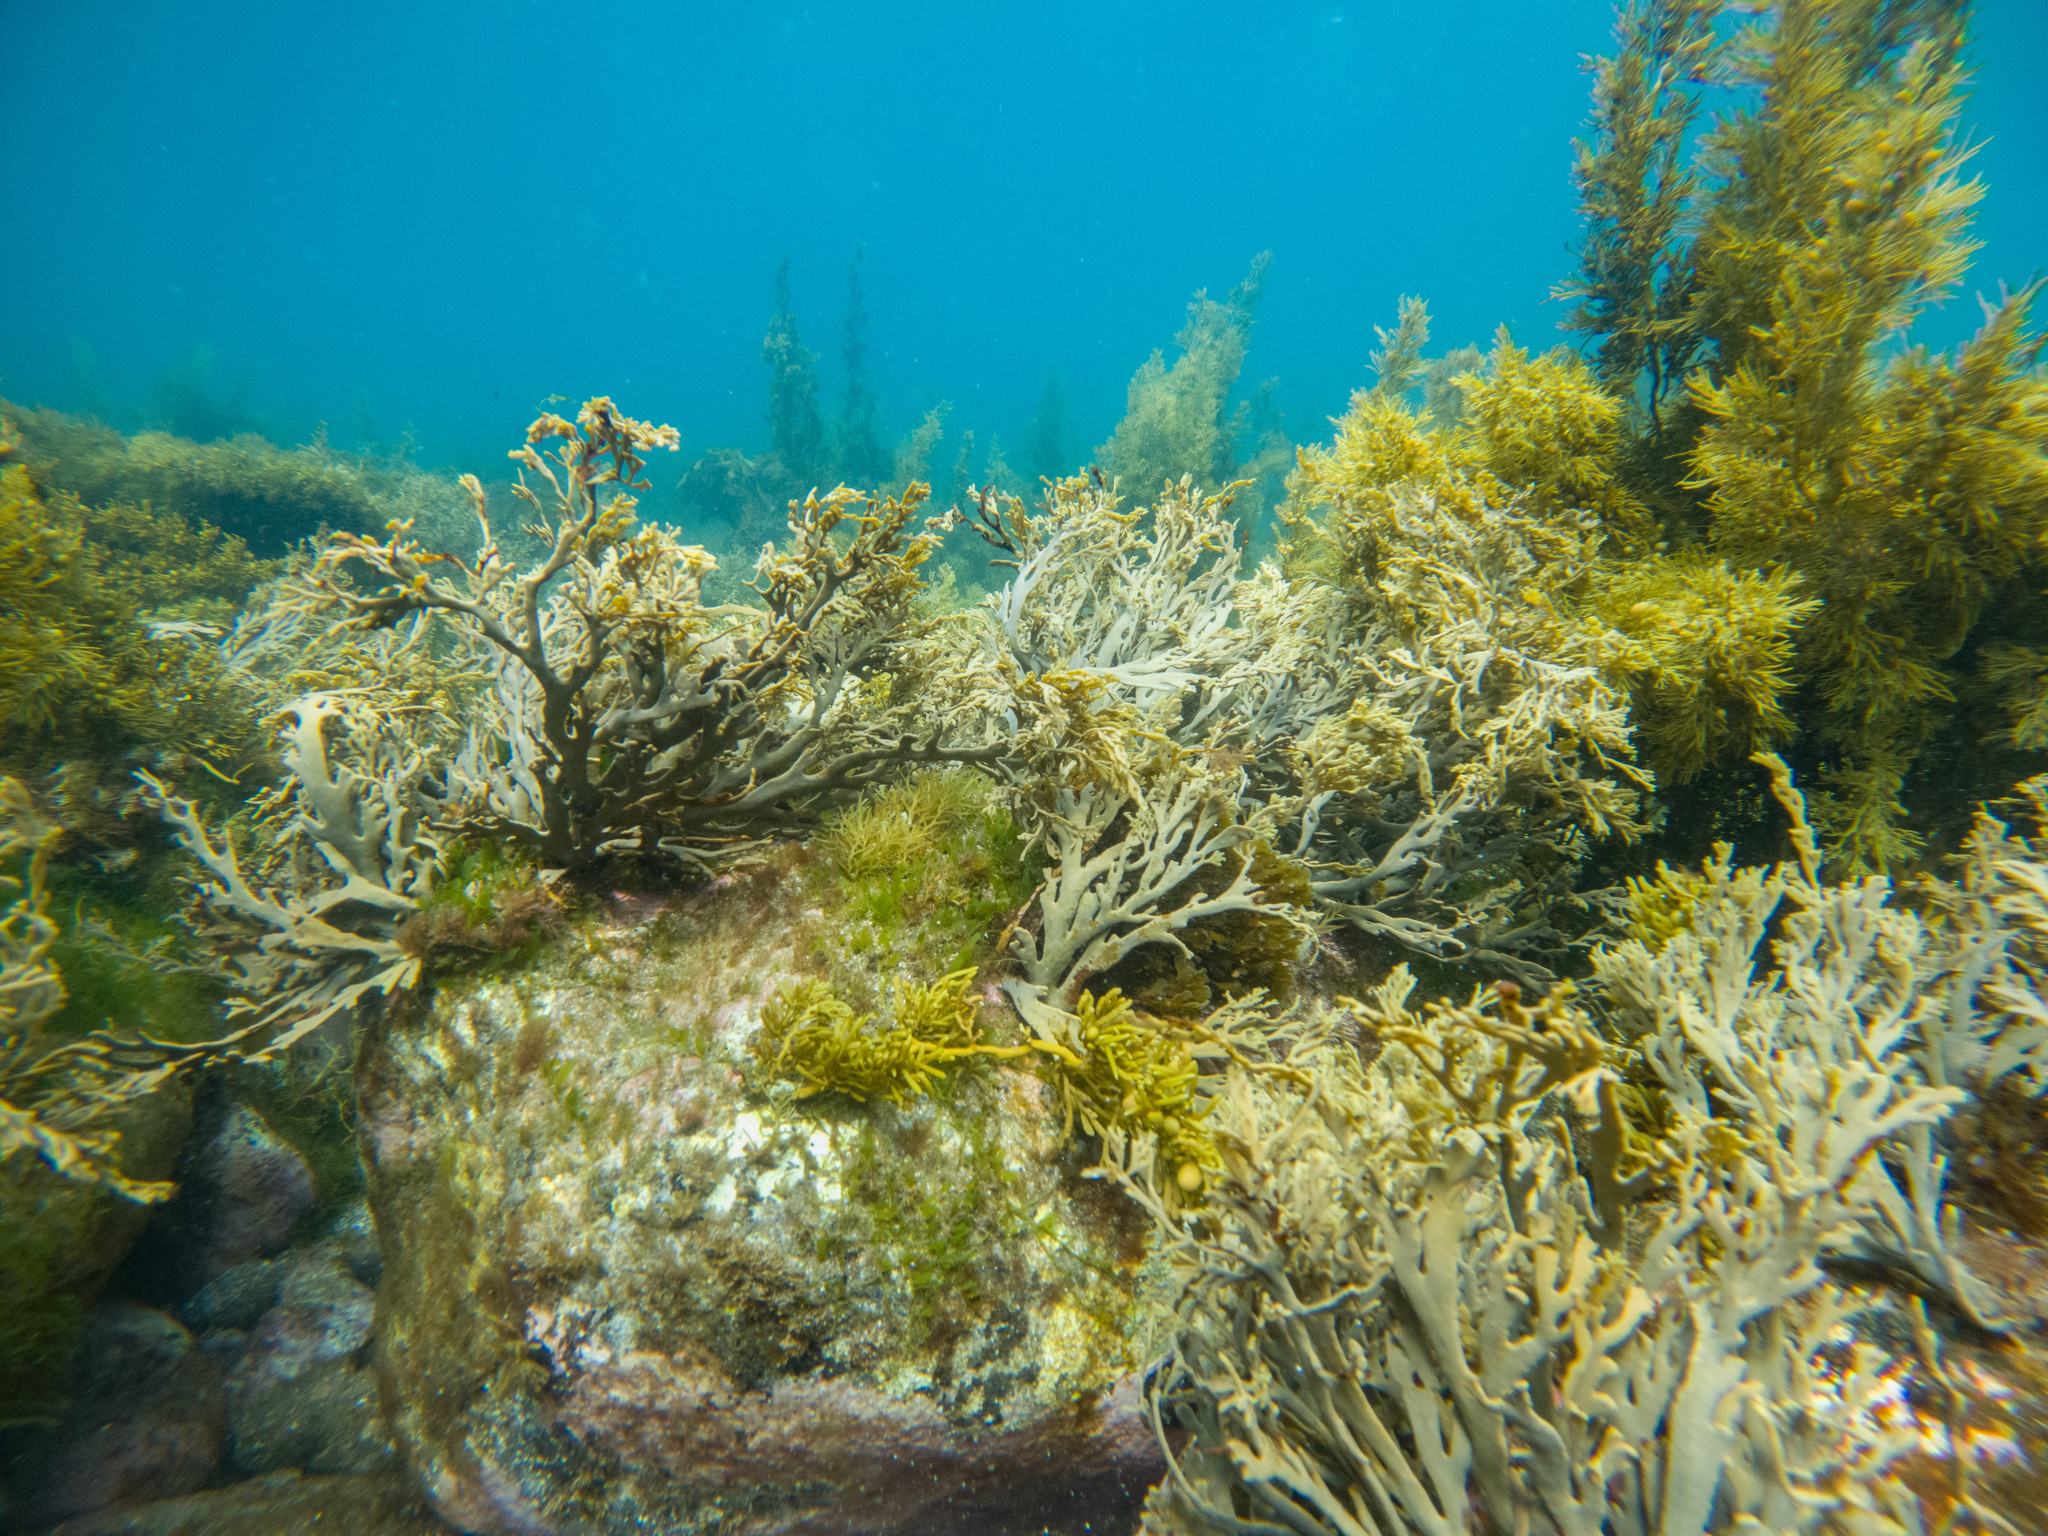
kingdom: Chromista
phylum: Ochrophyta
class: Phaeophyceae
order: Fucales
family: Xiphophoraceae
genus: Xiphophora
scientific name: Xiphophora chondrophylla
